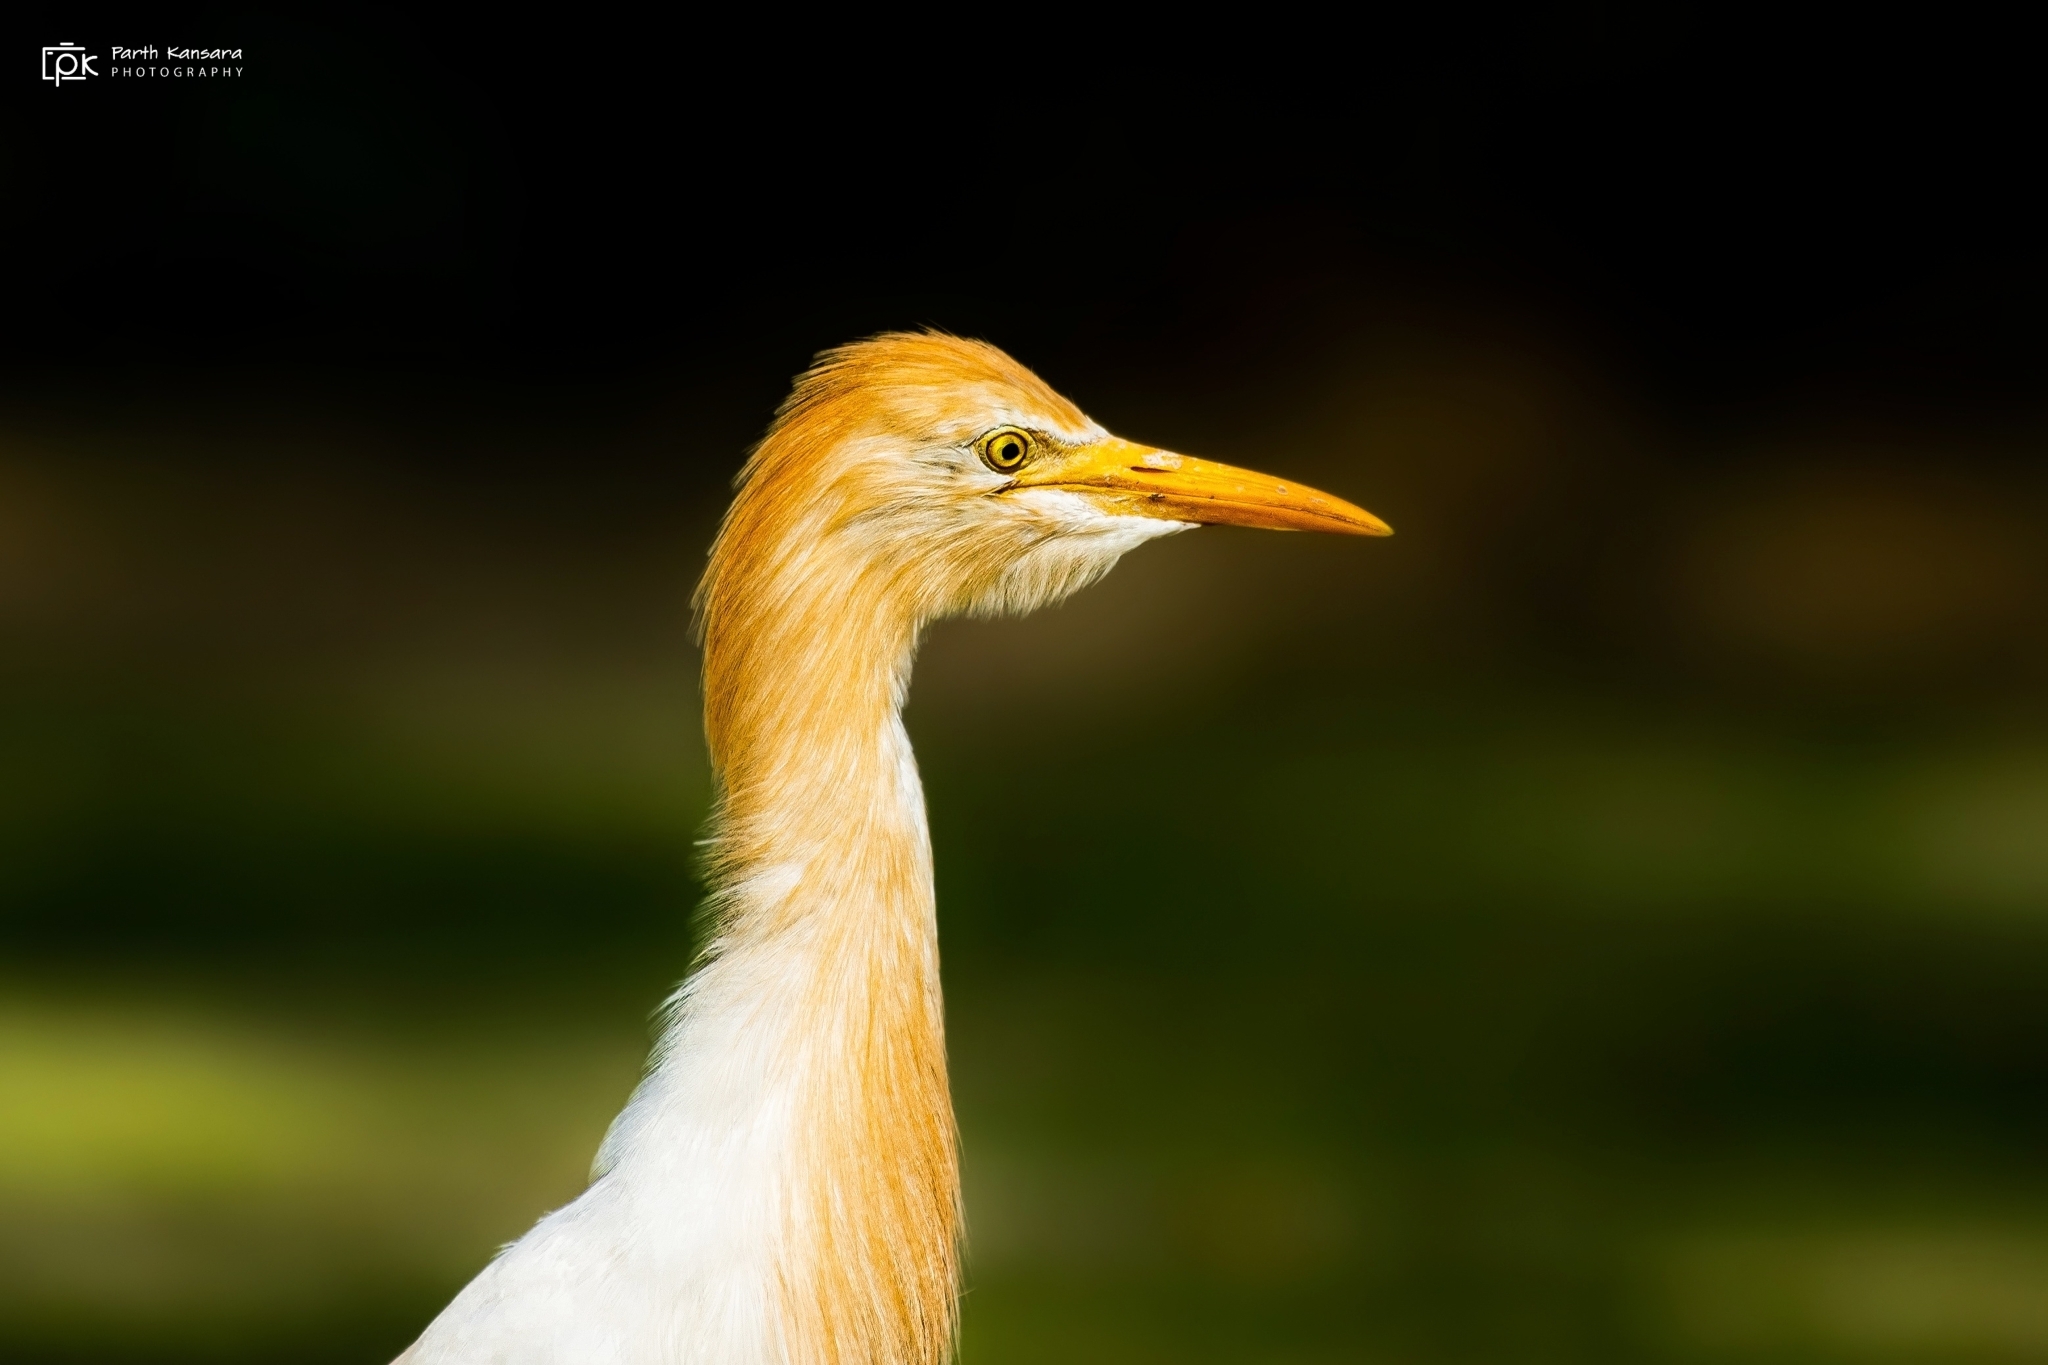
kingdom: Animalia
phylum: Chordata
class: Aves
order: Pelecaniformes
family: Ardeidae
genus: Bubulcus
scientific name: Bubulcus coromandus
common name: Eastern cattle egret
